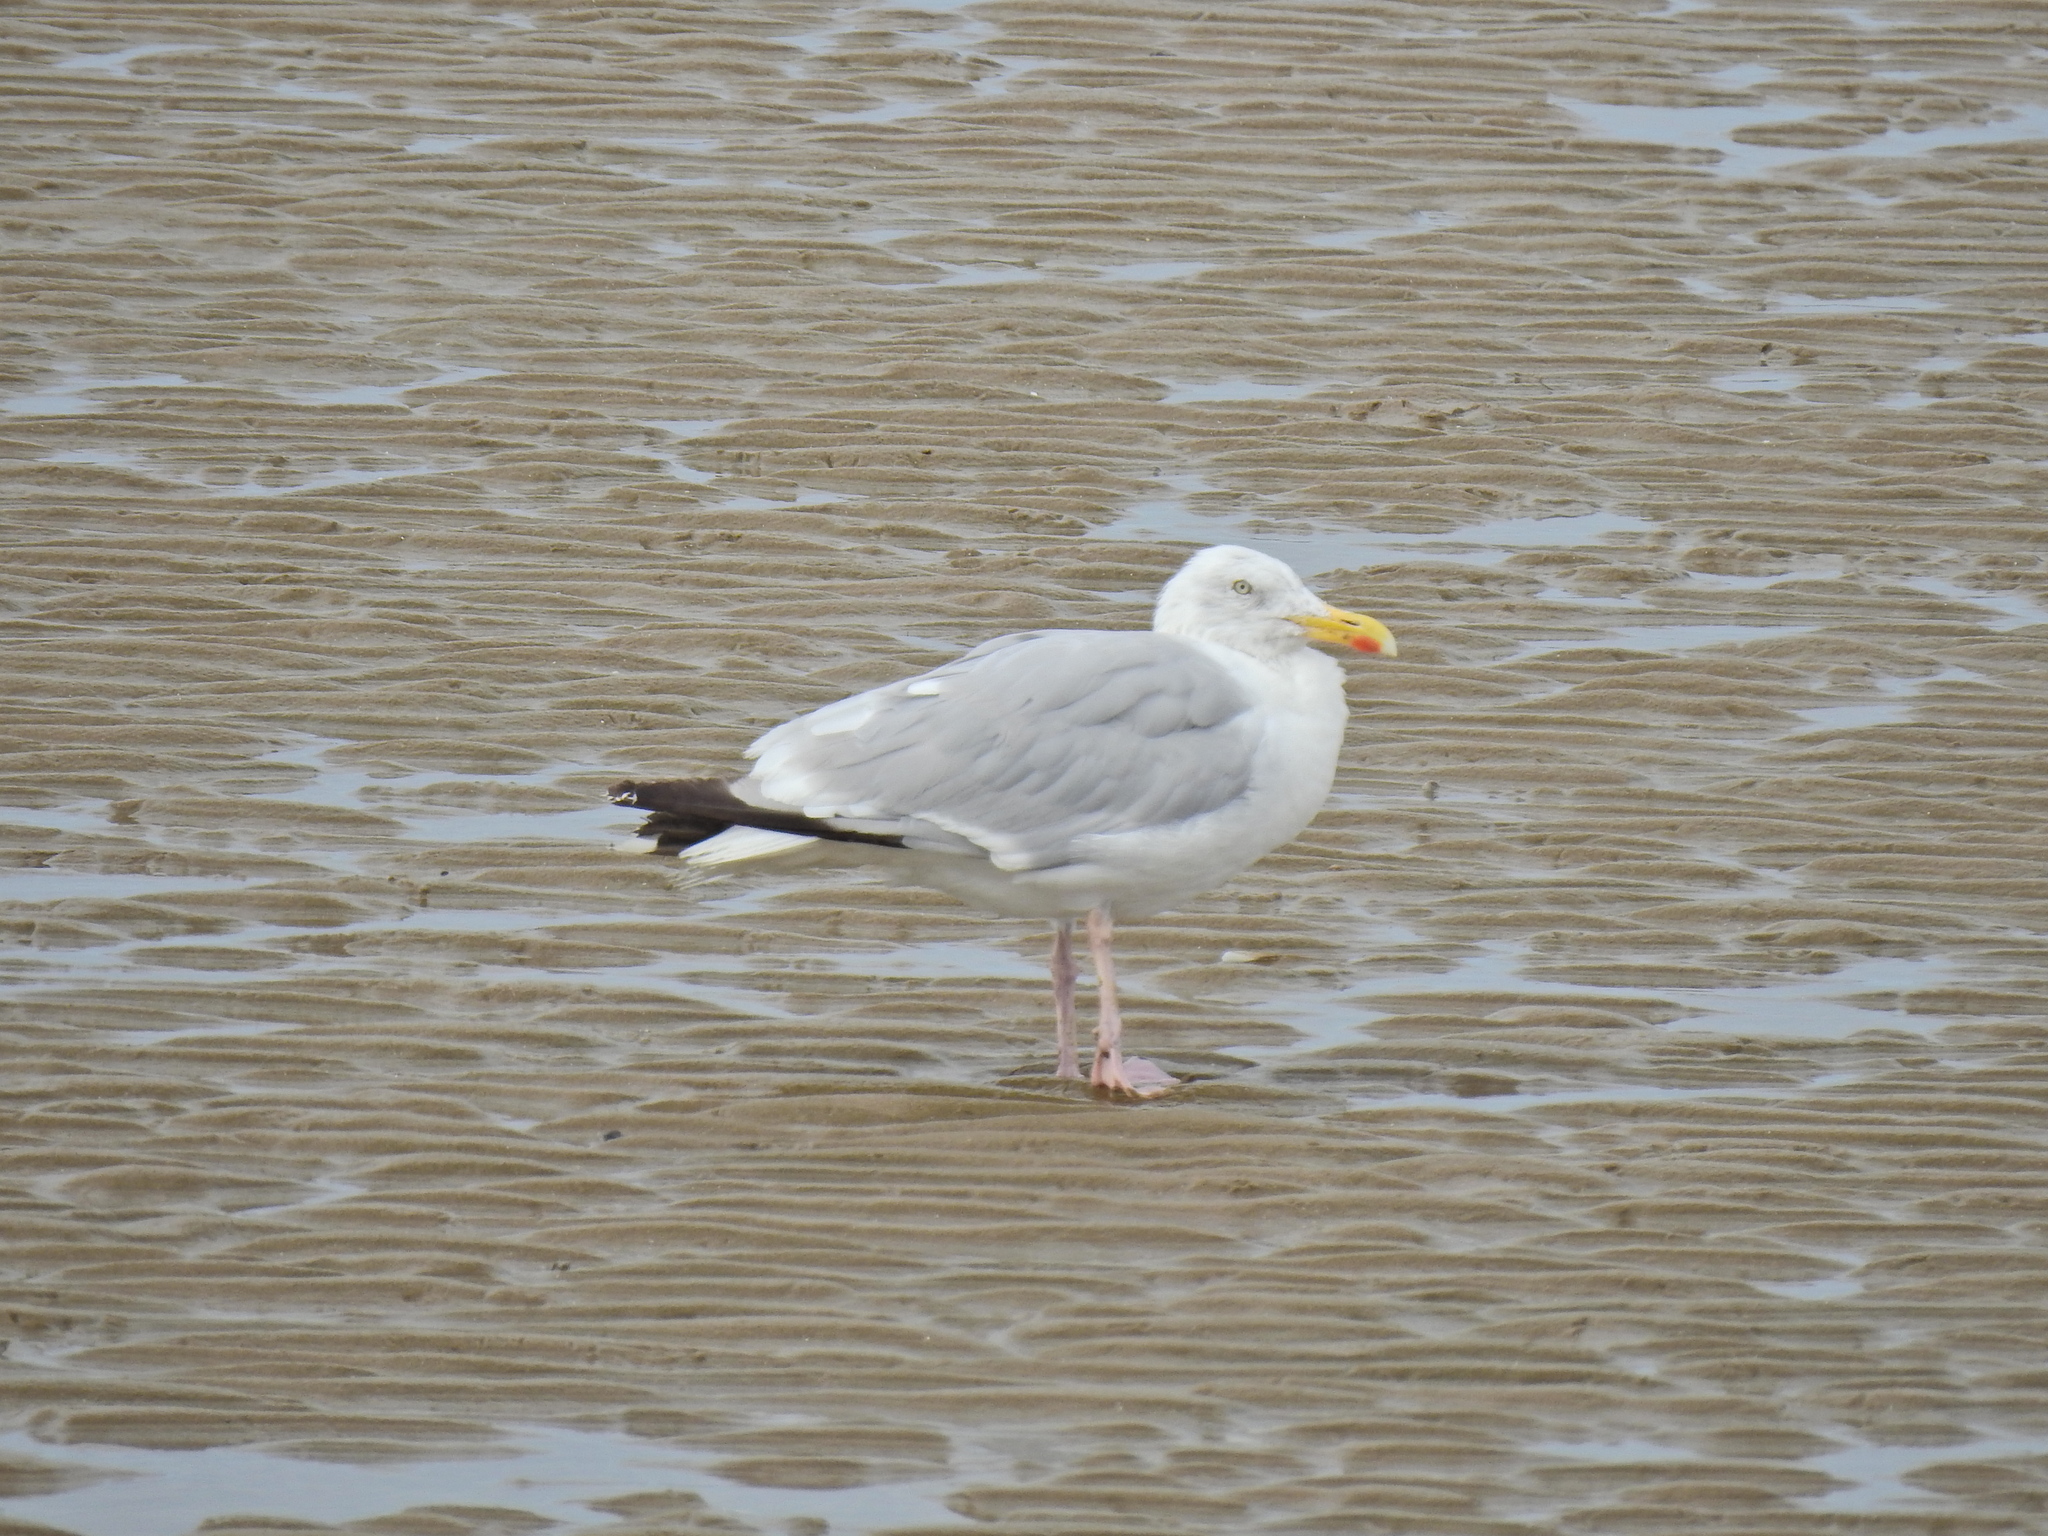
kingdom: Animalia
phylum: Chordata
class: Aves
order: Charadriiformes
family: Laridae
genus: Larus
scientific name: Larus argentatus
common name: Herring gull
